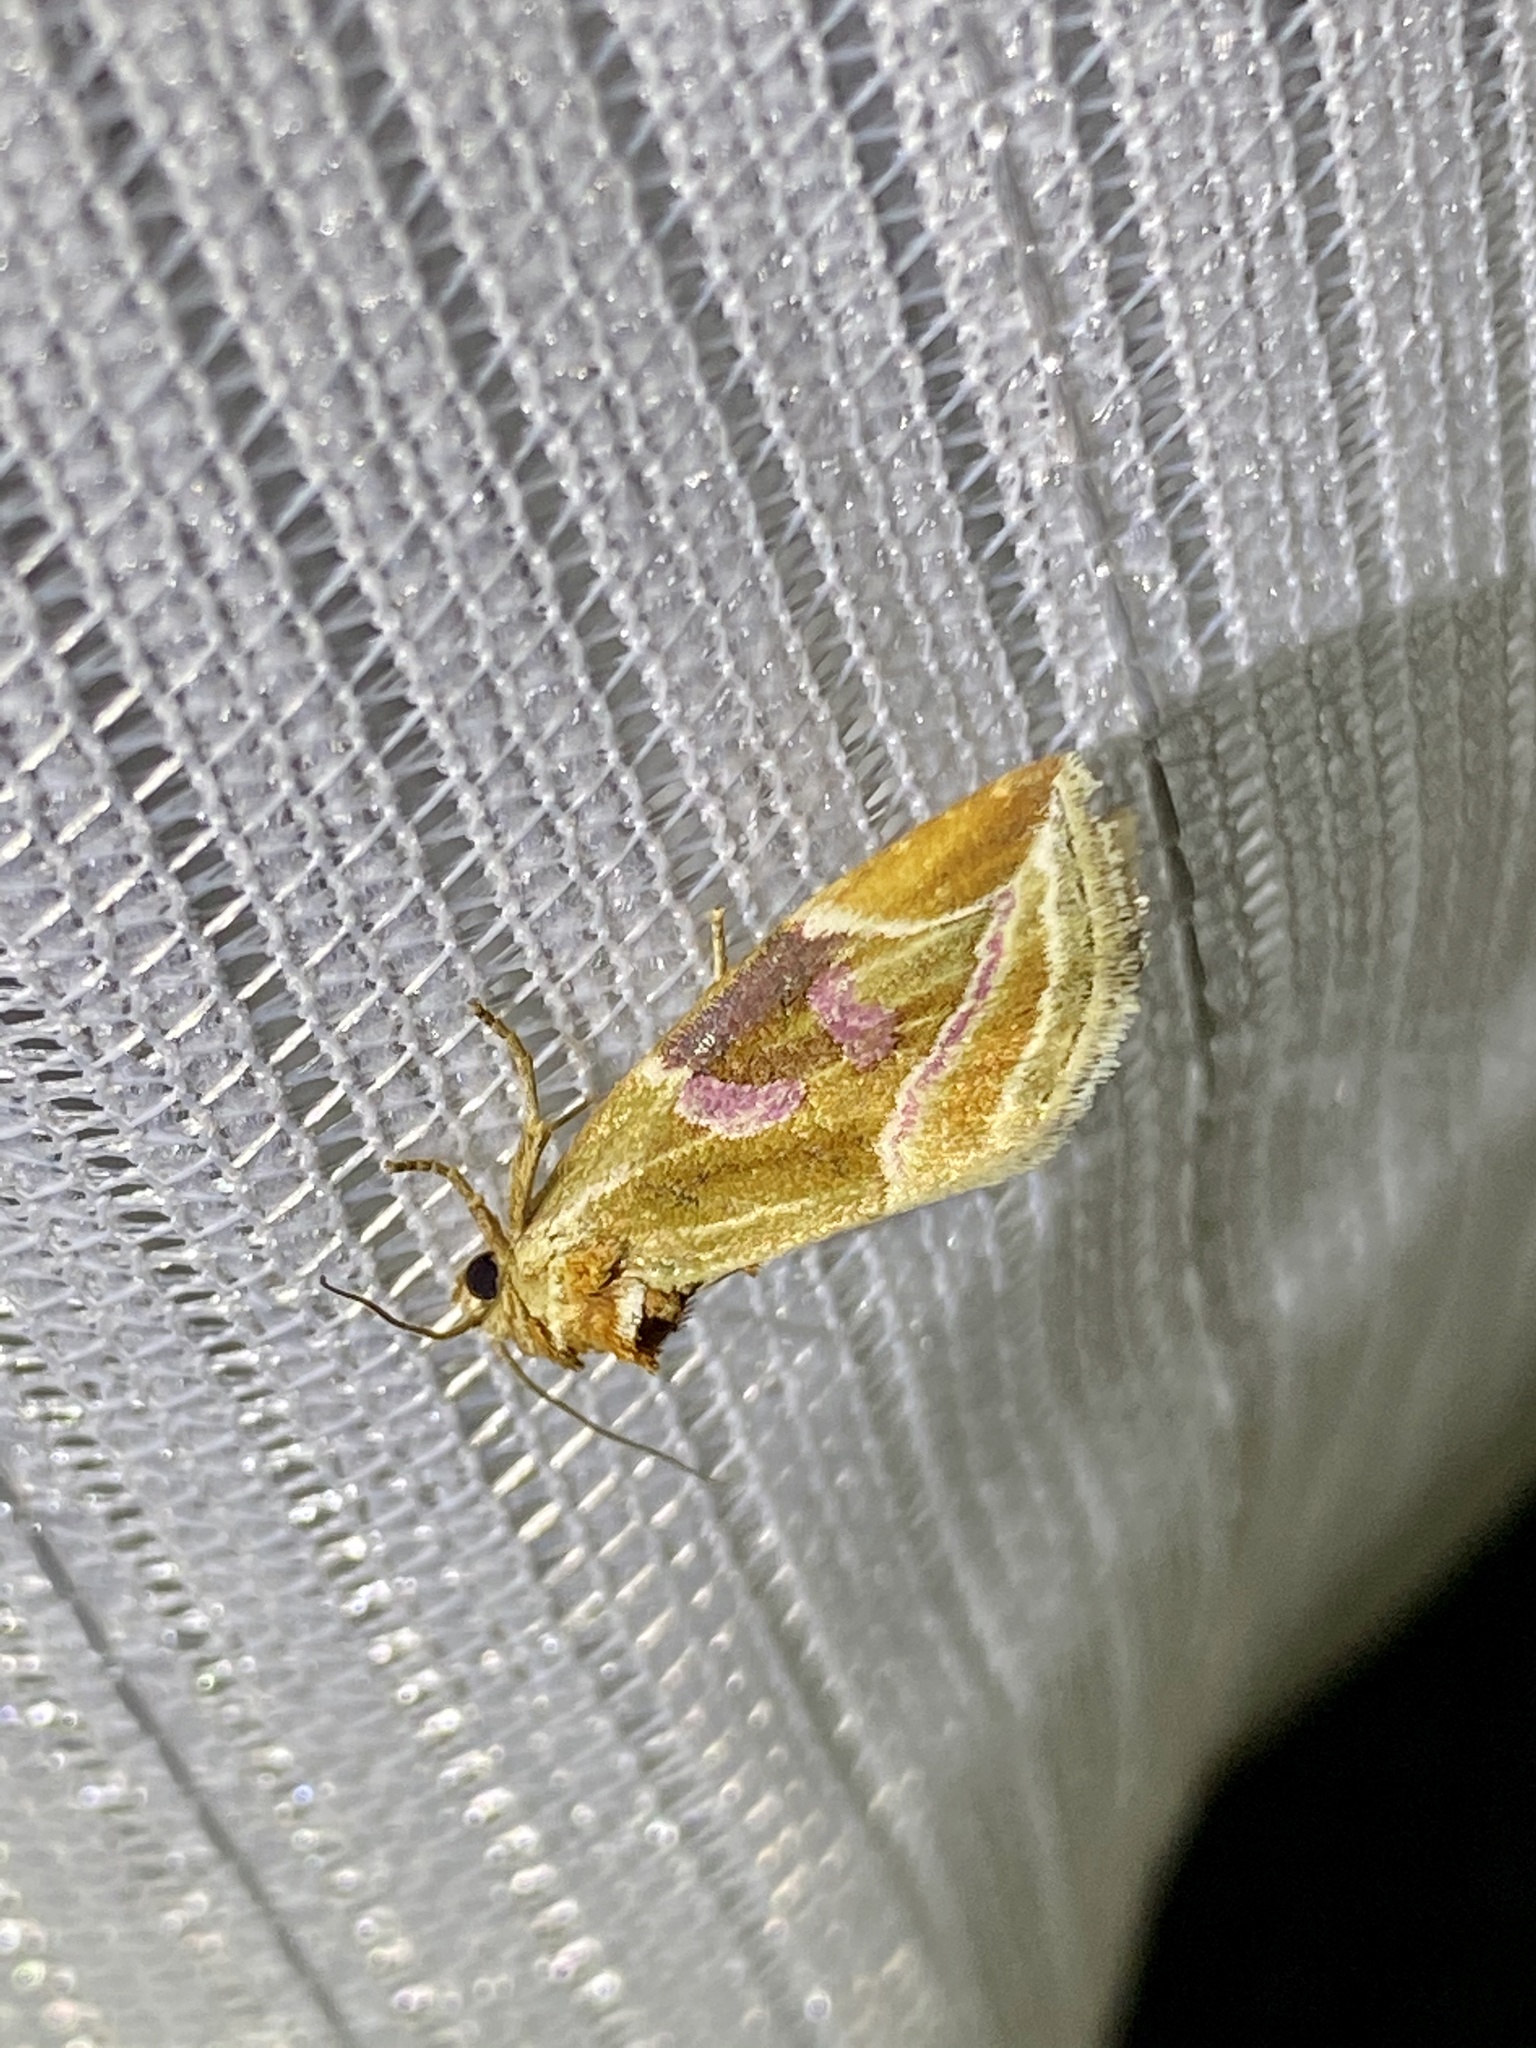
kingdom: Animalia
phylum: Arthropoda
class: Insecta
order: Lepidoptera
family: Noctuidae
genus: Micardia
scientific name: Micardia pulchra
